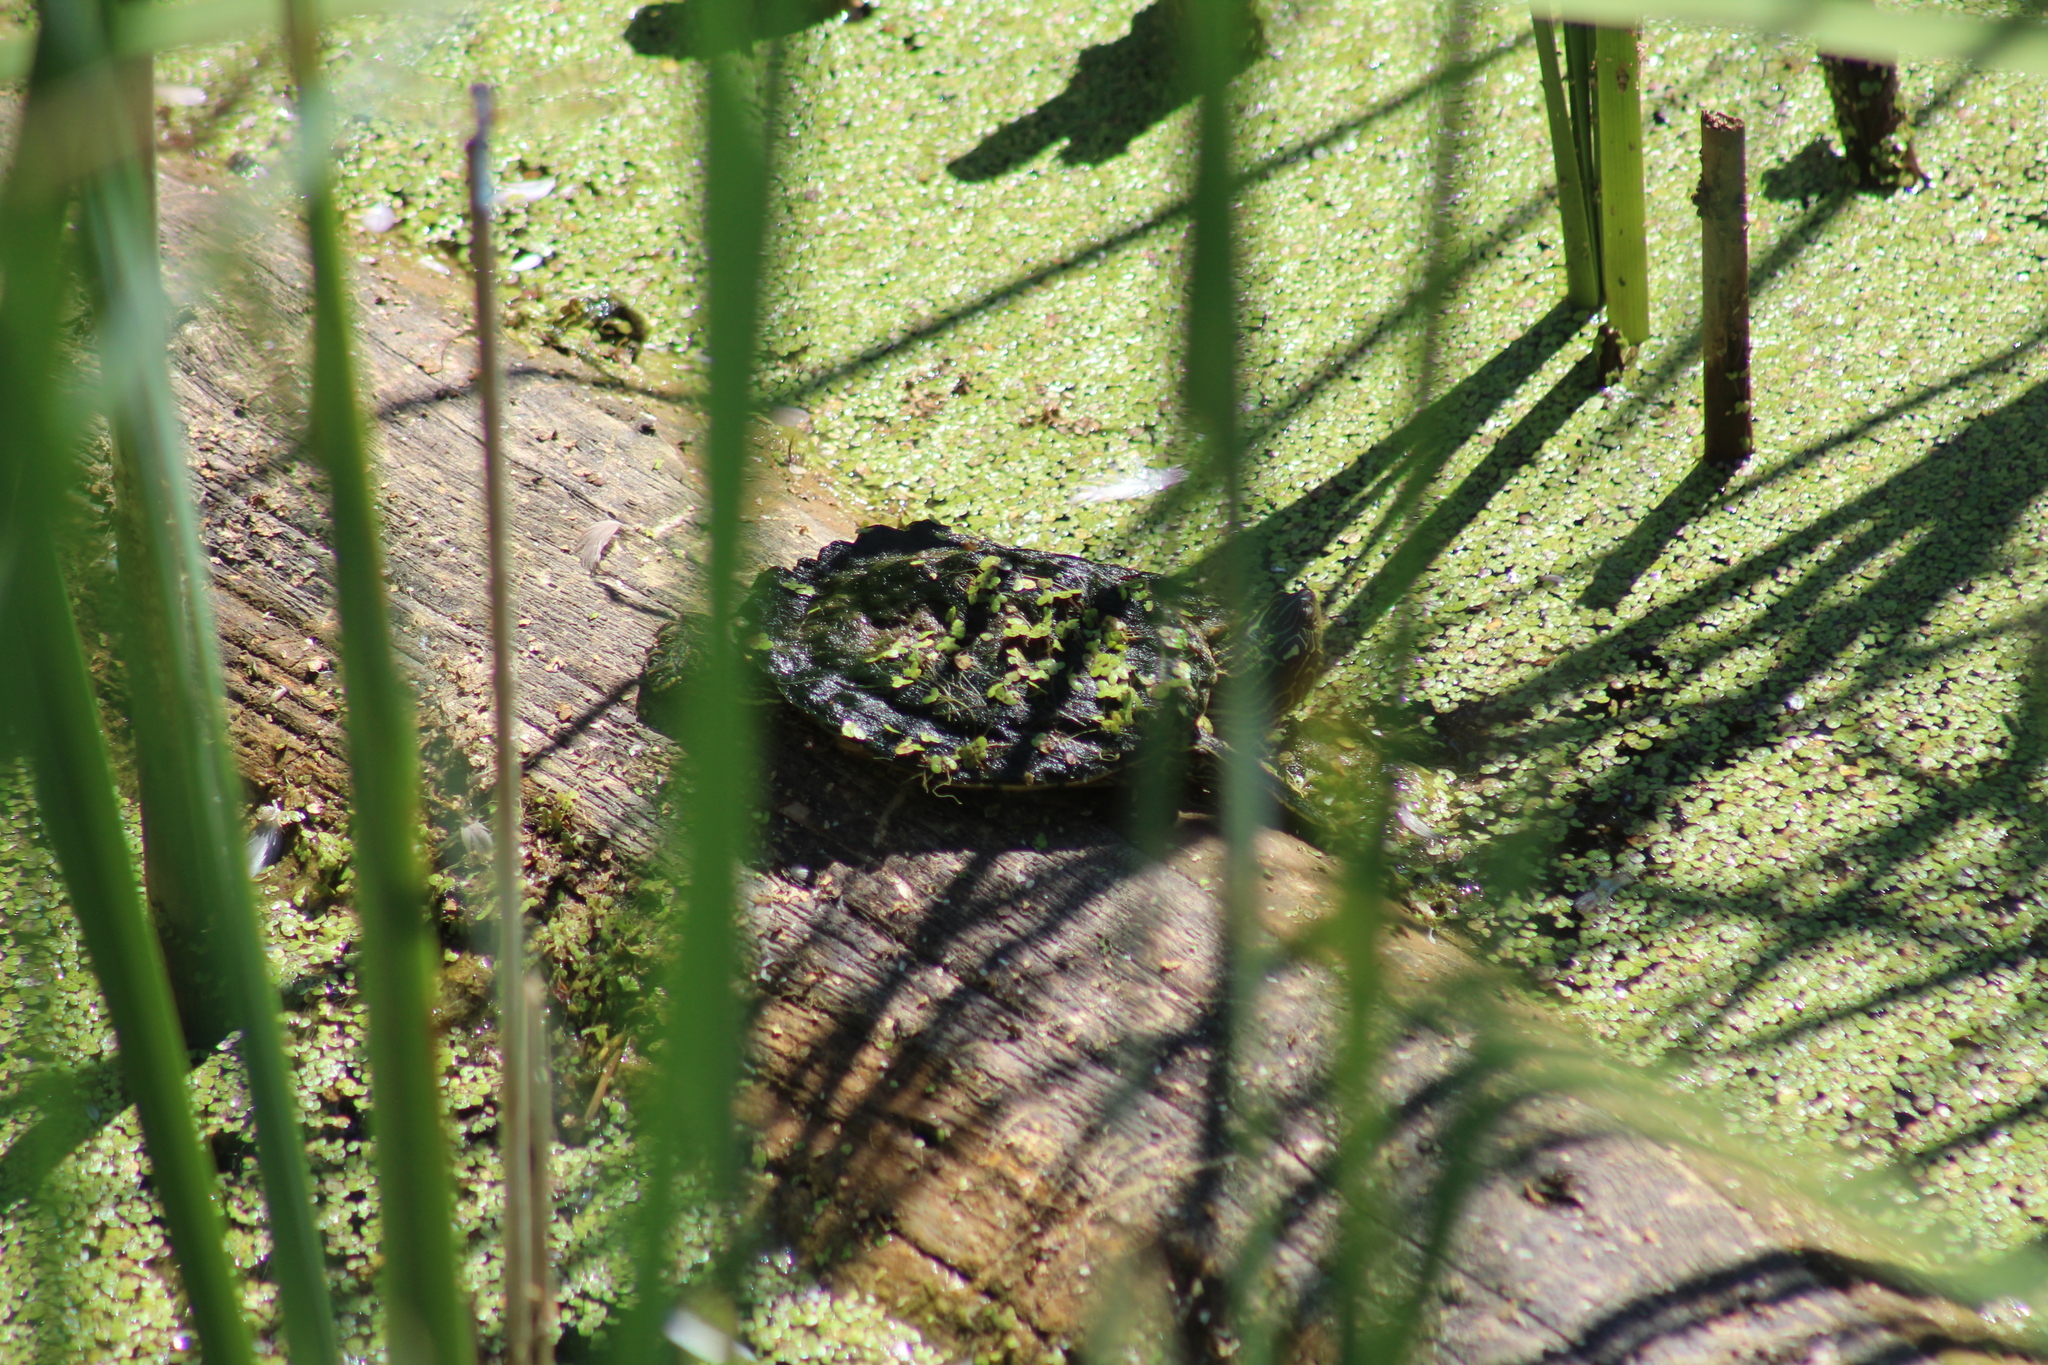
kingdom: Animalia
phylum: Chordata
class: Testudines
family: Emydidae
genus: Graptemys
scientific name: Graptemys geographica
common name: Common map turtle
